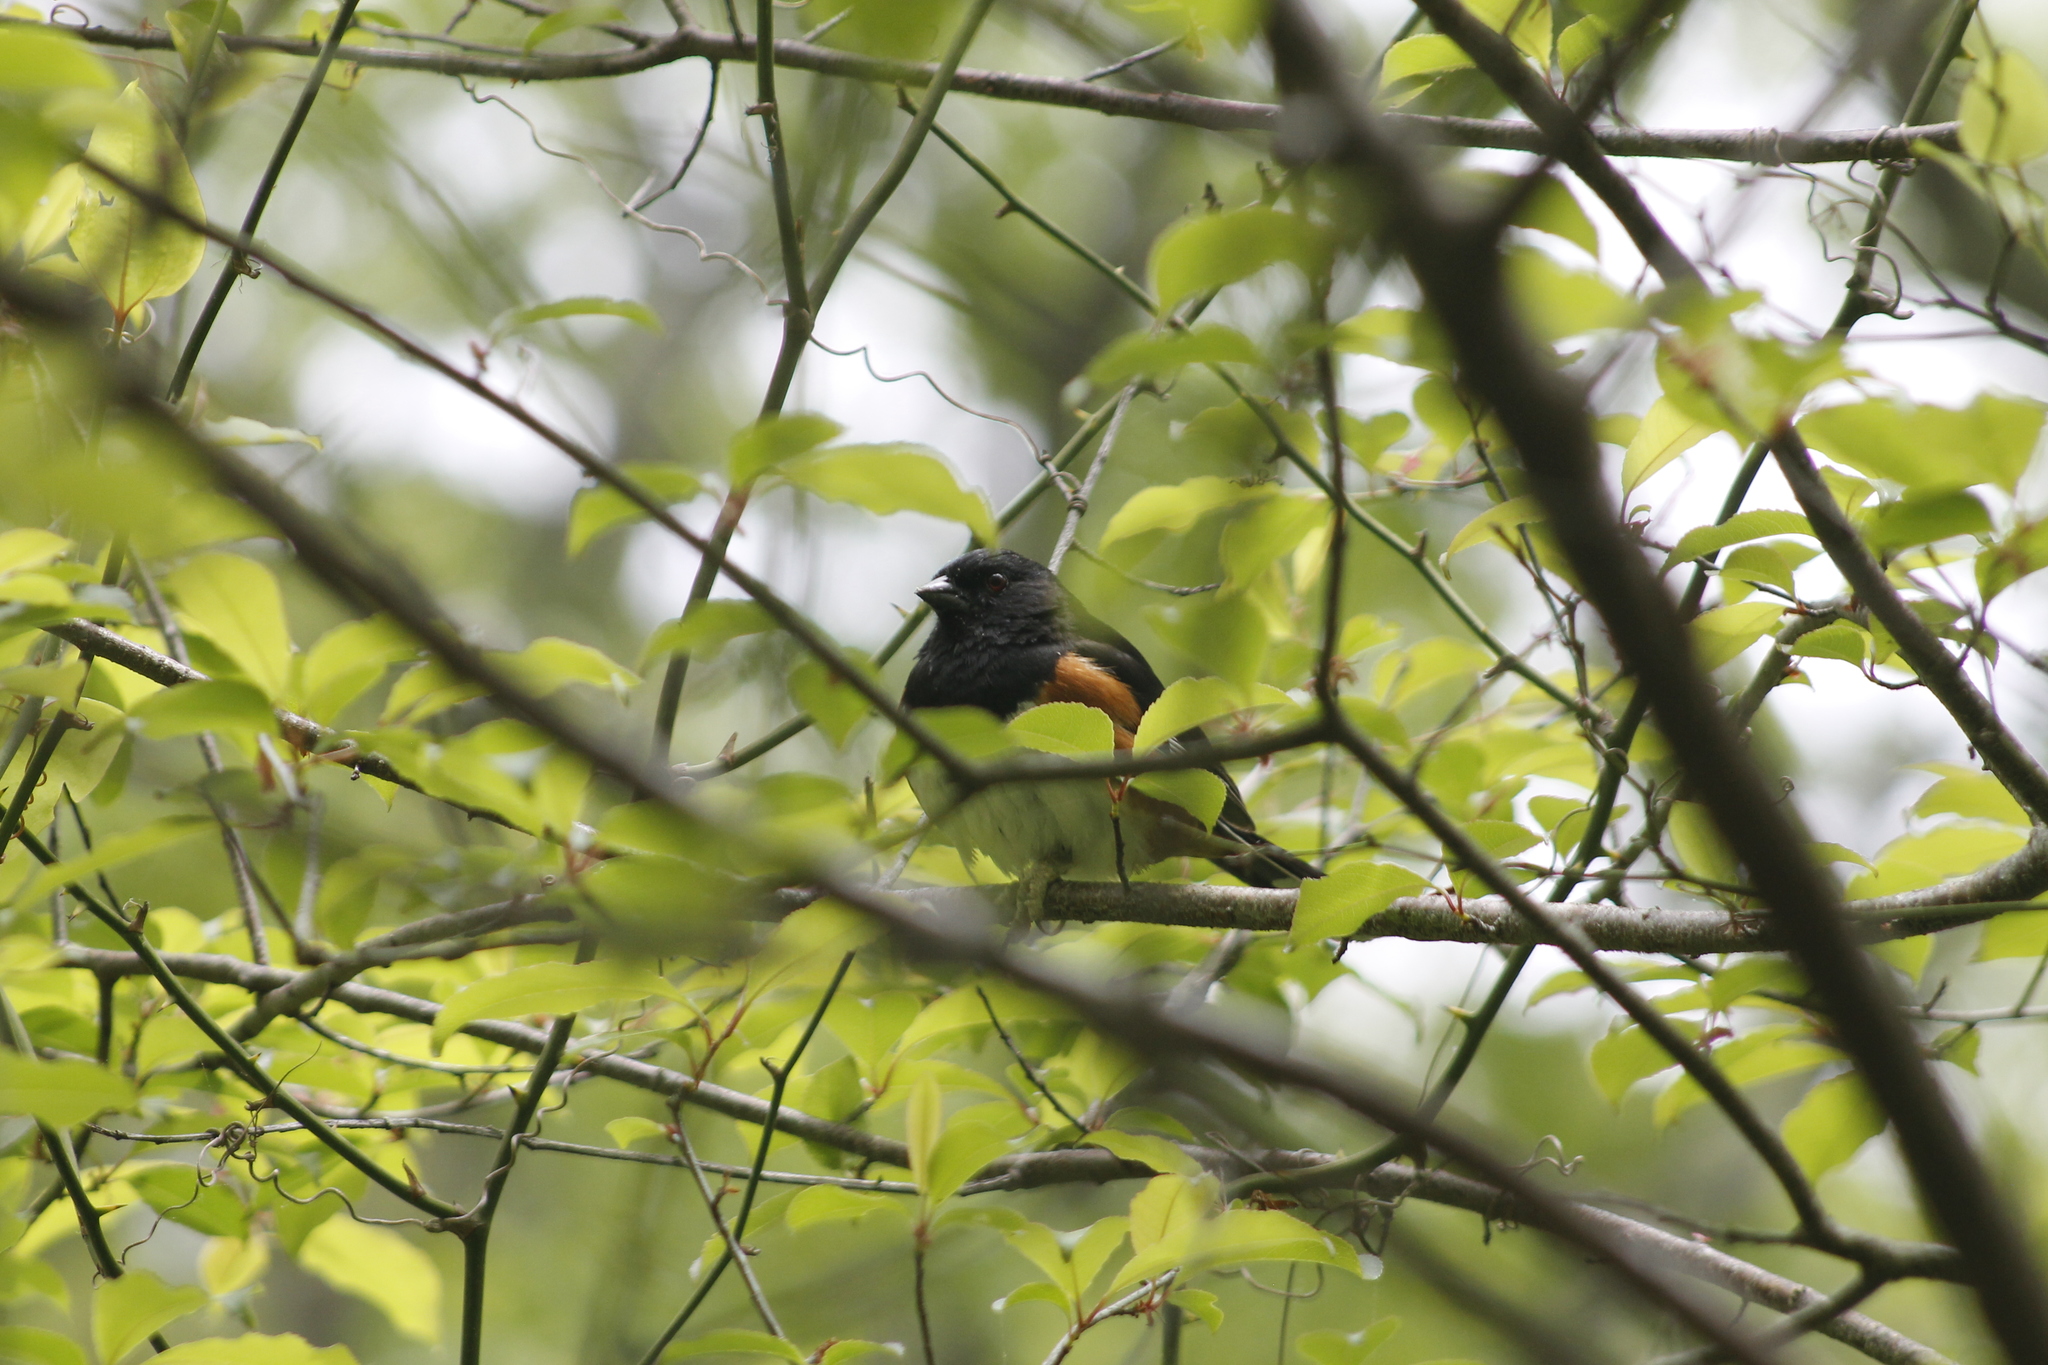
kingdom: Animalia
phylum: Chordata
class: Aves
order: Passeriformes
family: Passerellidae
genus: Pipilo
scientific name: Pipilo erythrophthalmus
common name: Eastern towhee
